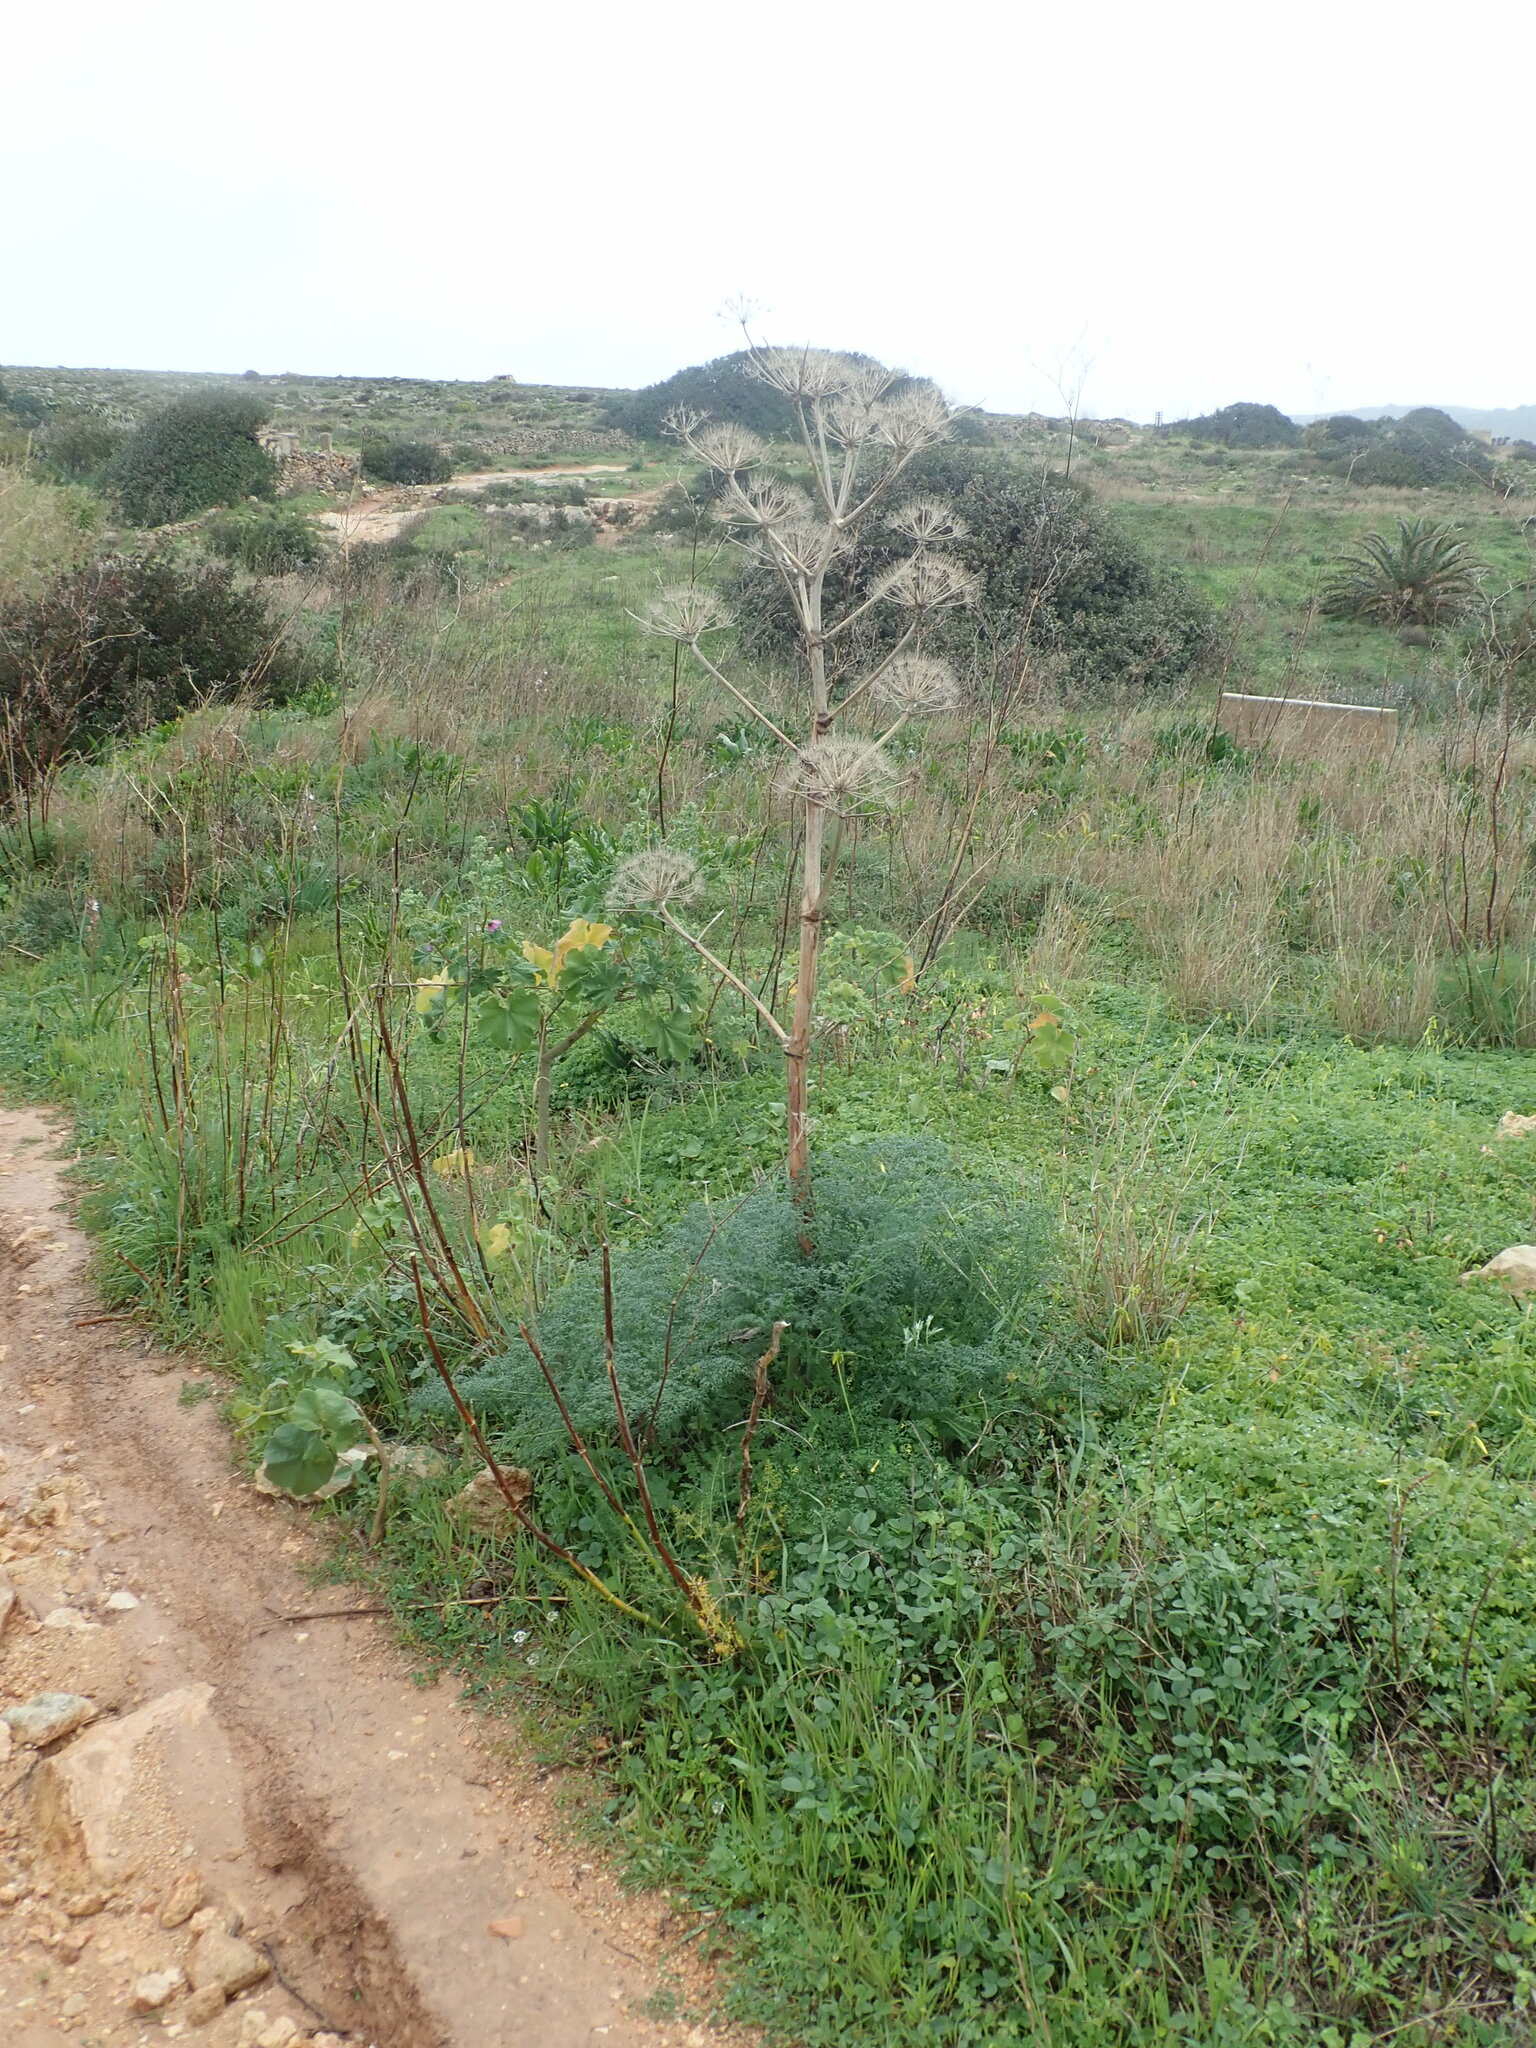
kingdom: Plantae
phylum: Tracheophyta
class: Magnoliopsida
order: Apiales
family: Apiaceae
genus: Ferula
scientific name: Ferula melitensis
